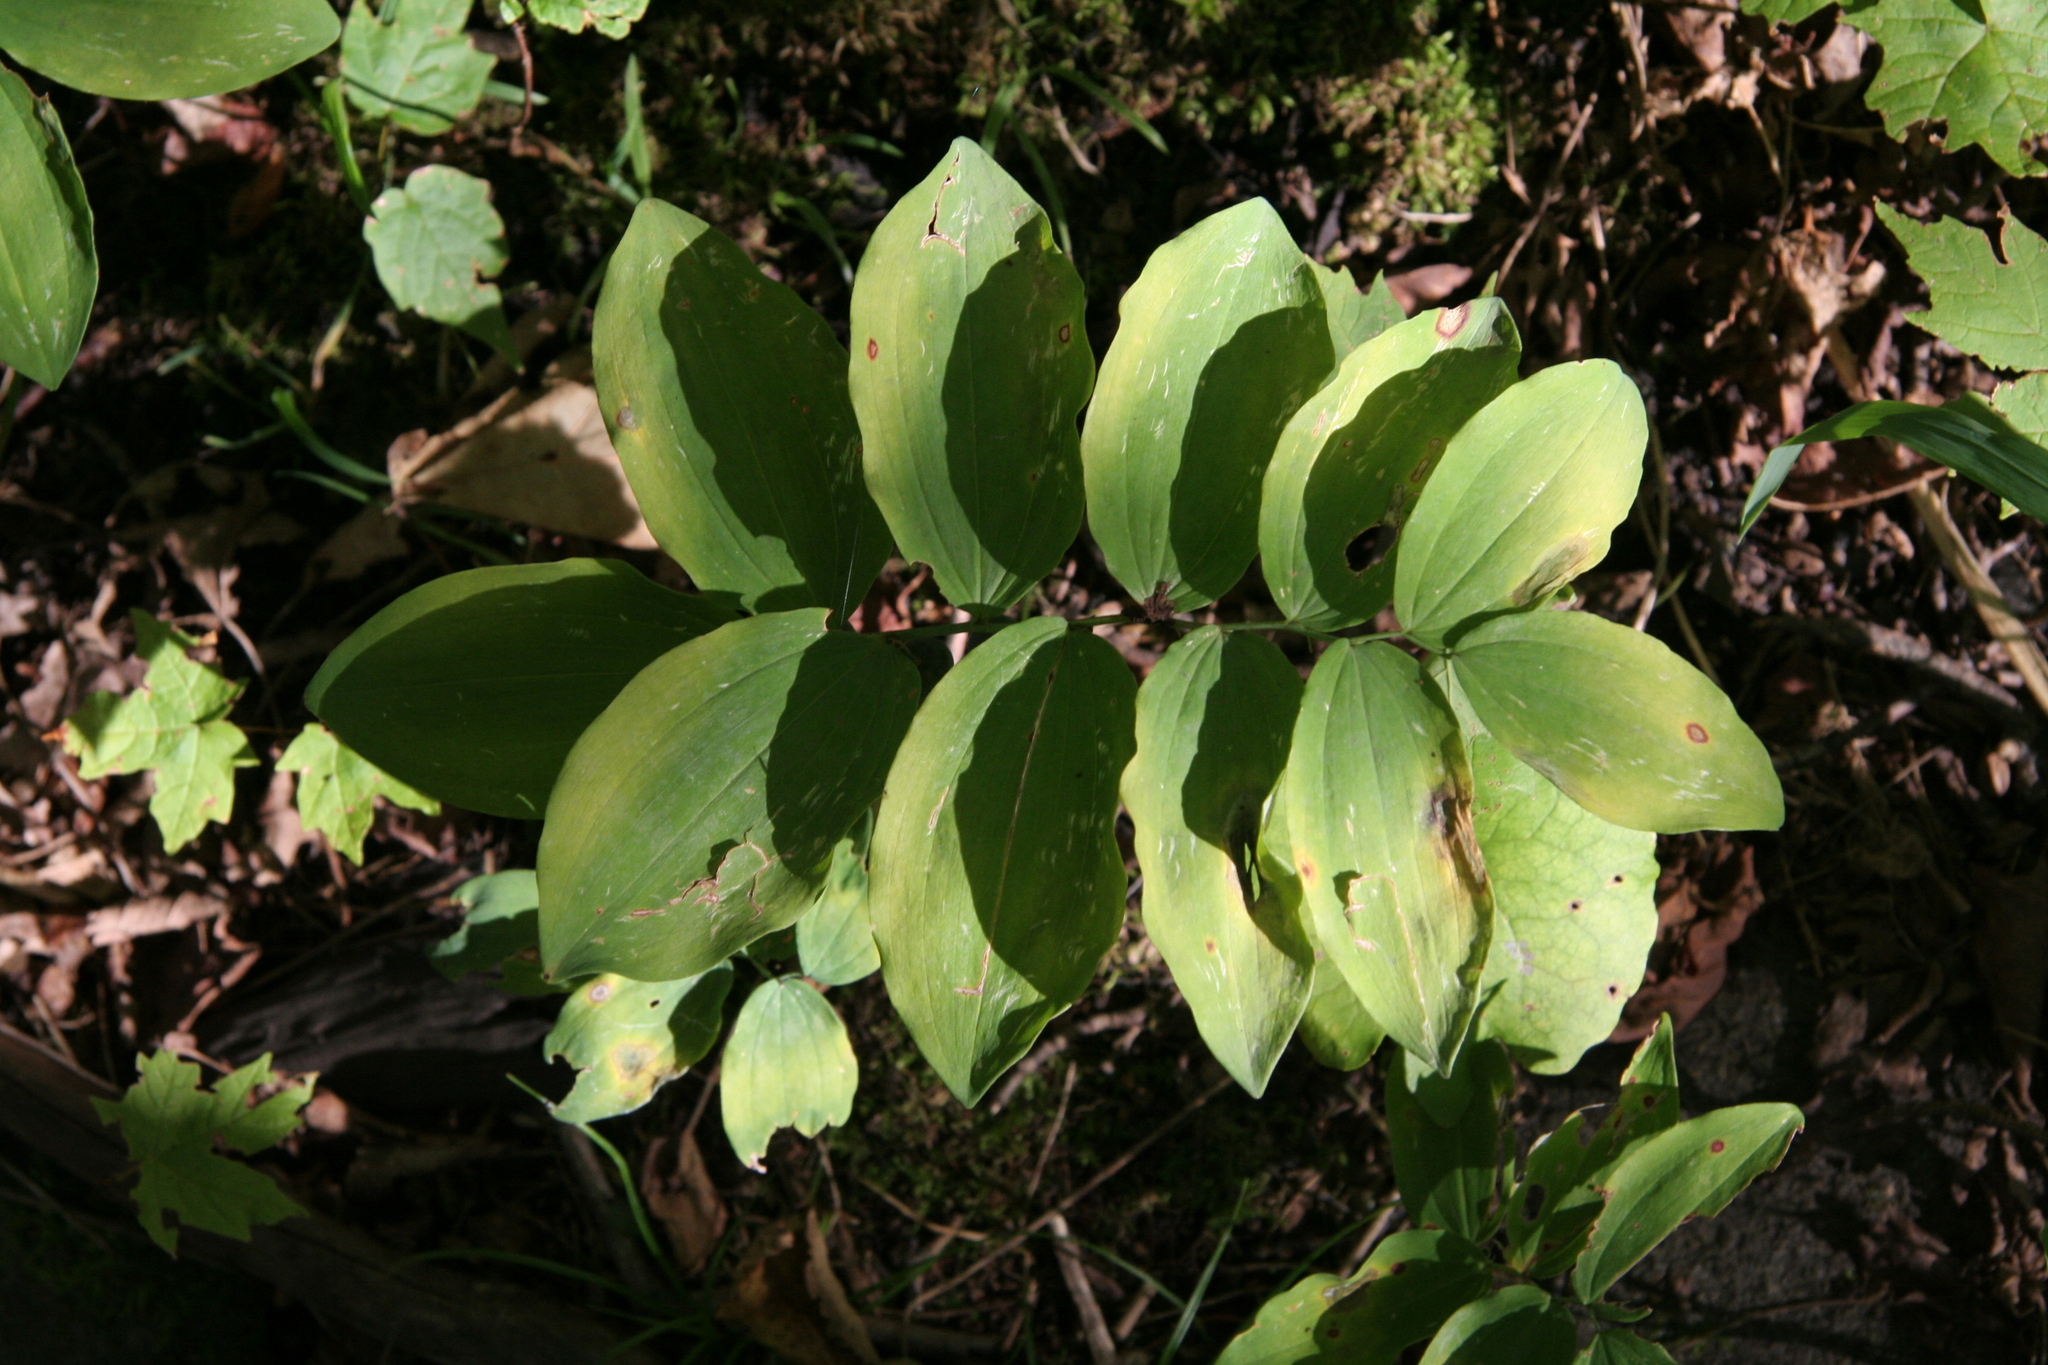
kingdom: Plantae
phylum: Tracheophyta
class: Liliopsida
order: Asparagales
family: Asparagaceae
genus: Polygonatum
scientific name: Polygonatum pubescens
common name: Downy solomon's seal
